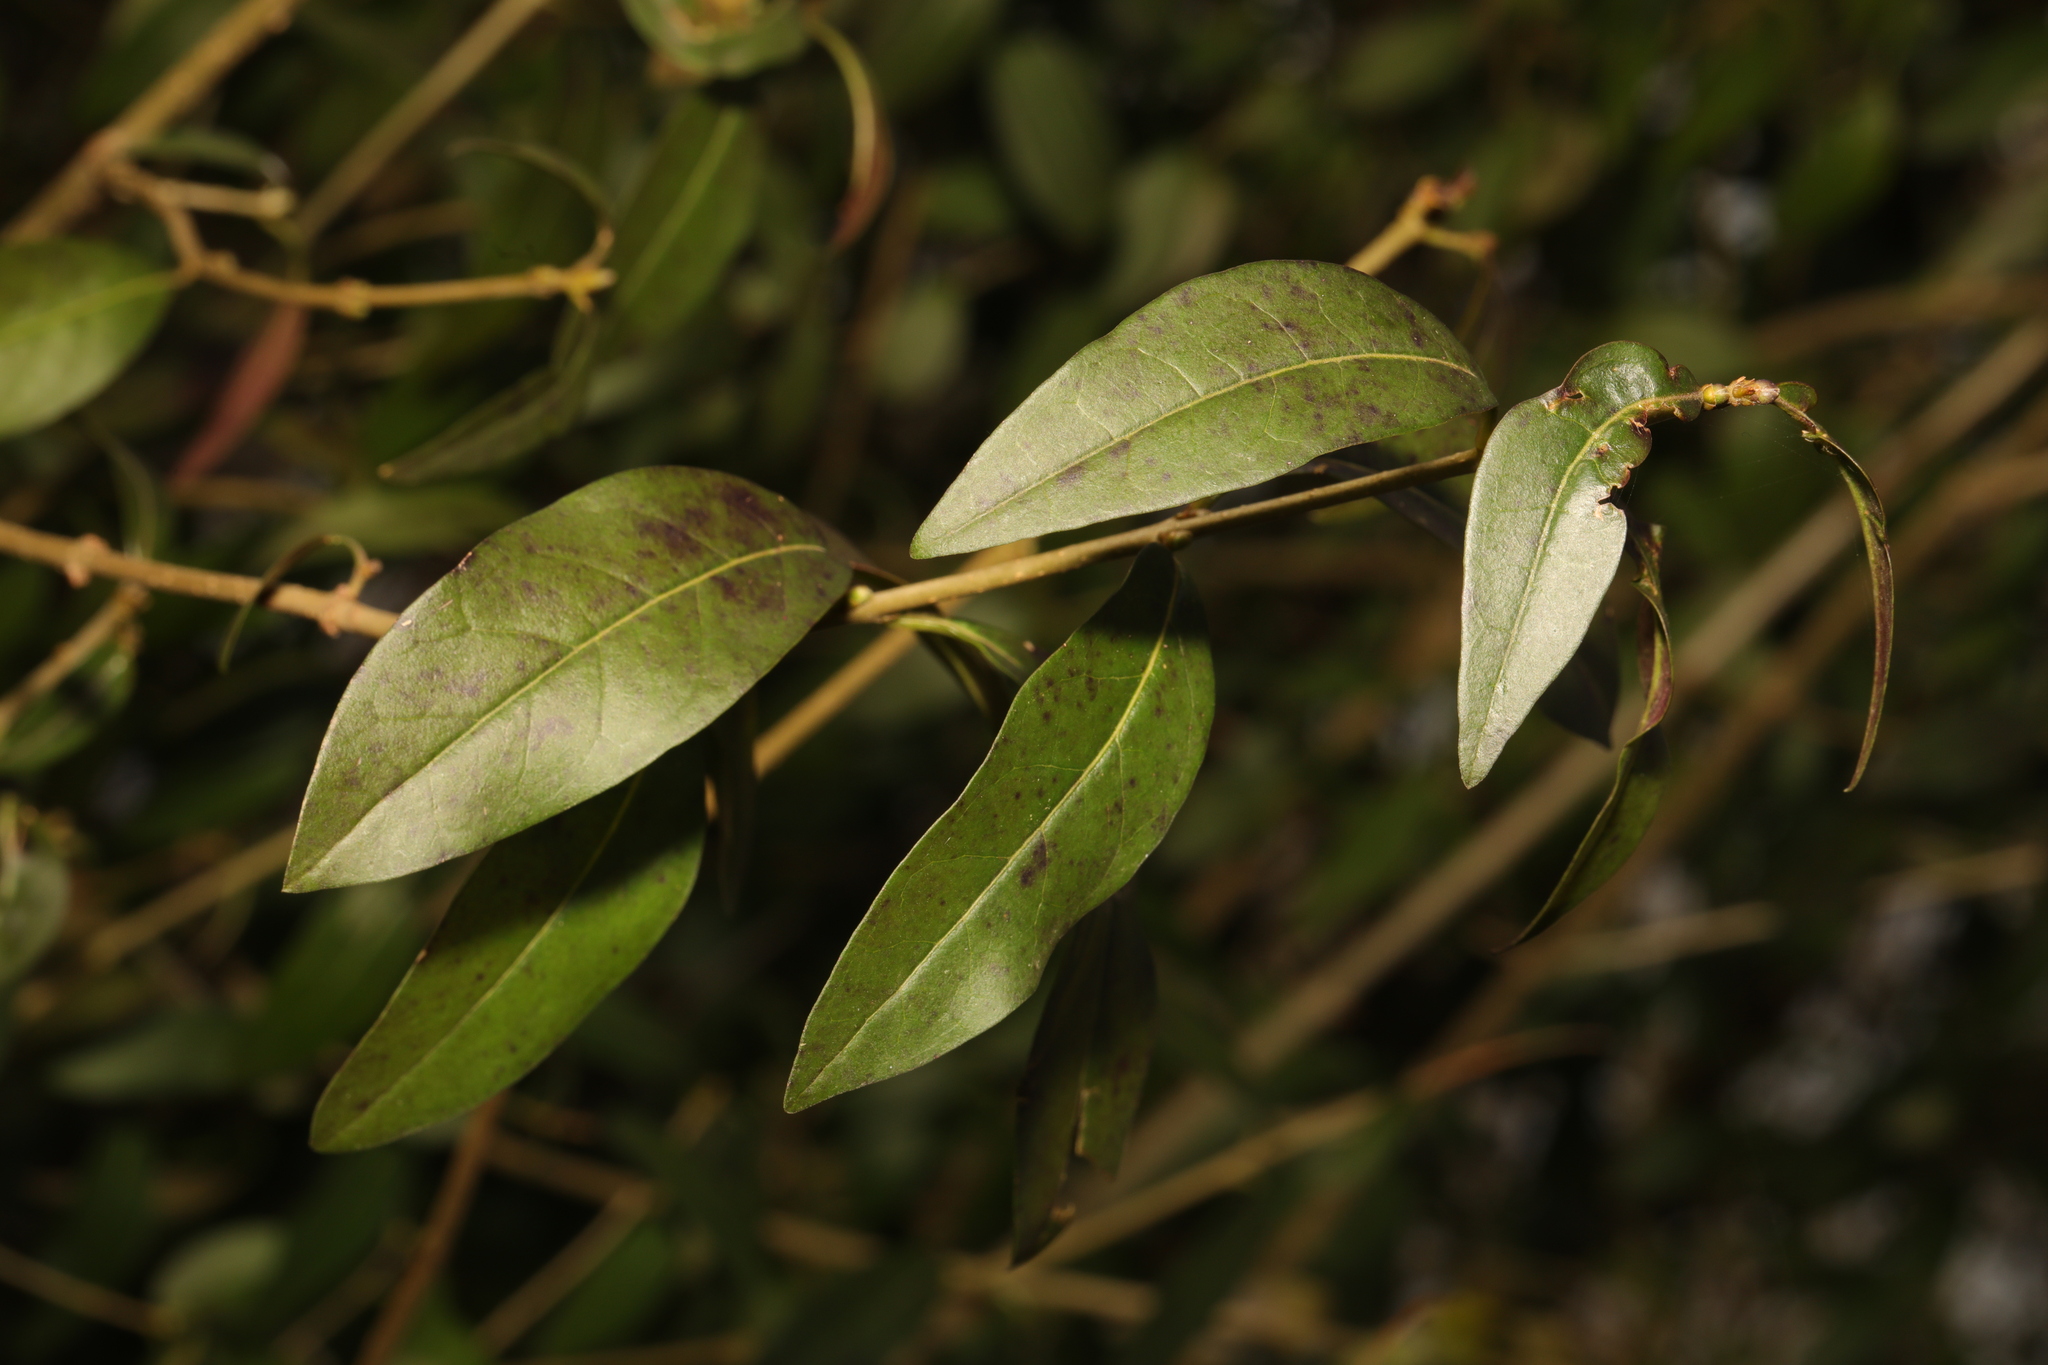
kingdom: Plantae
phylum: Tracheophyta
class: Magnoliopsida
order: Lamiales
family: Oleaceae
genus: Ligustrum
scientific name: Ligustrum vulgare
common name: Wild privet
